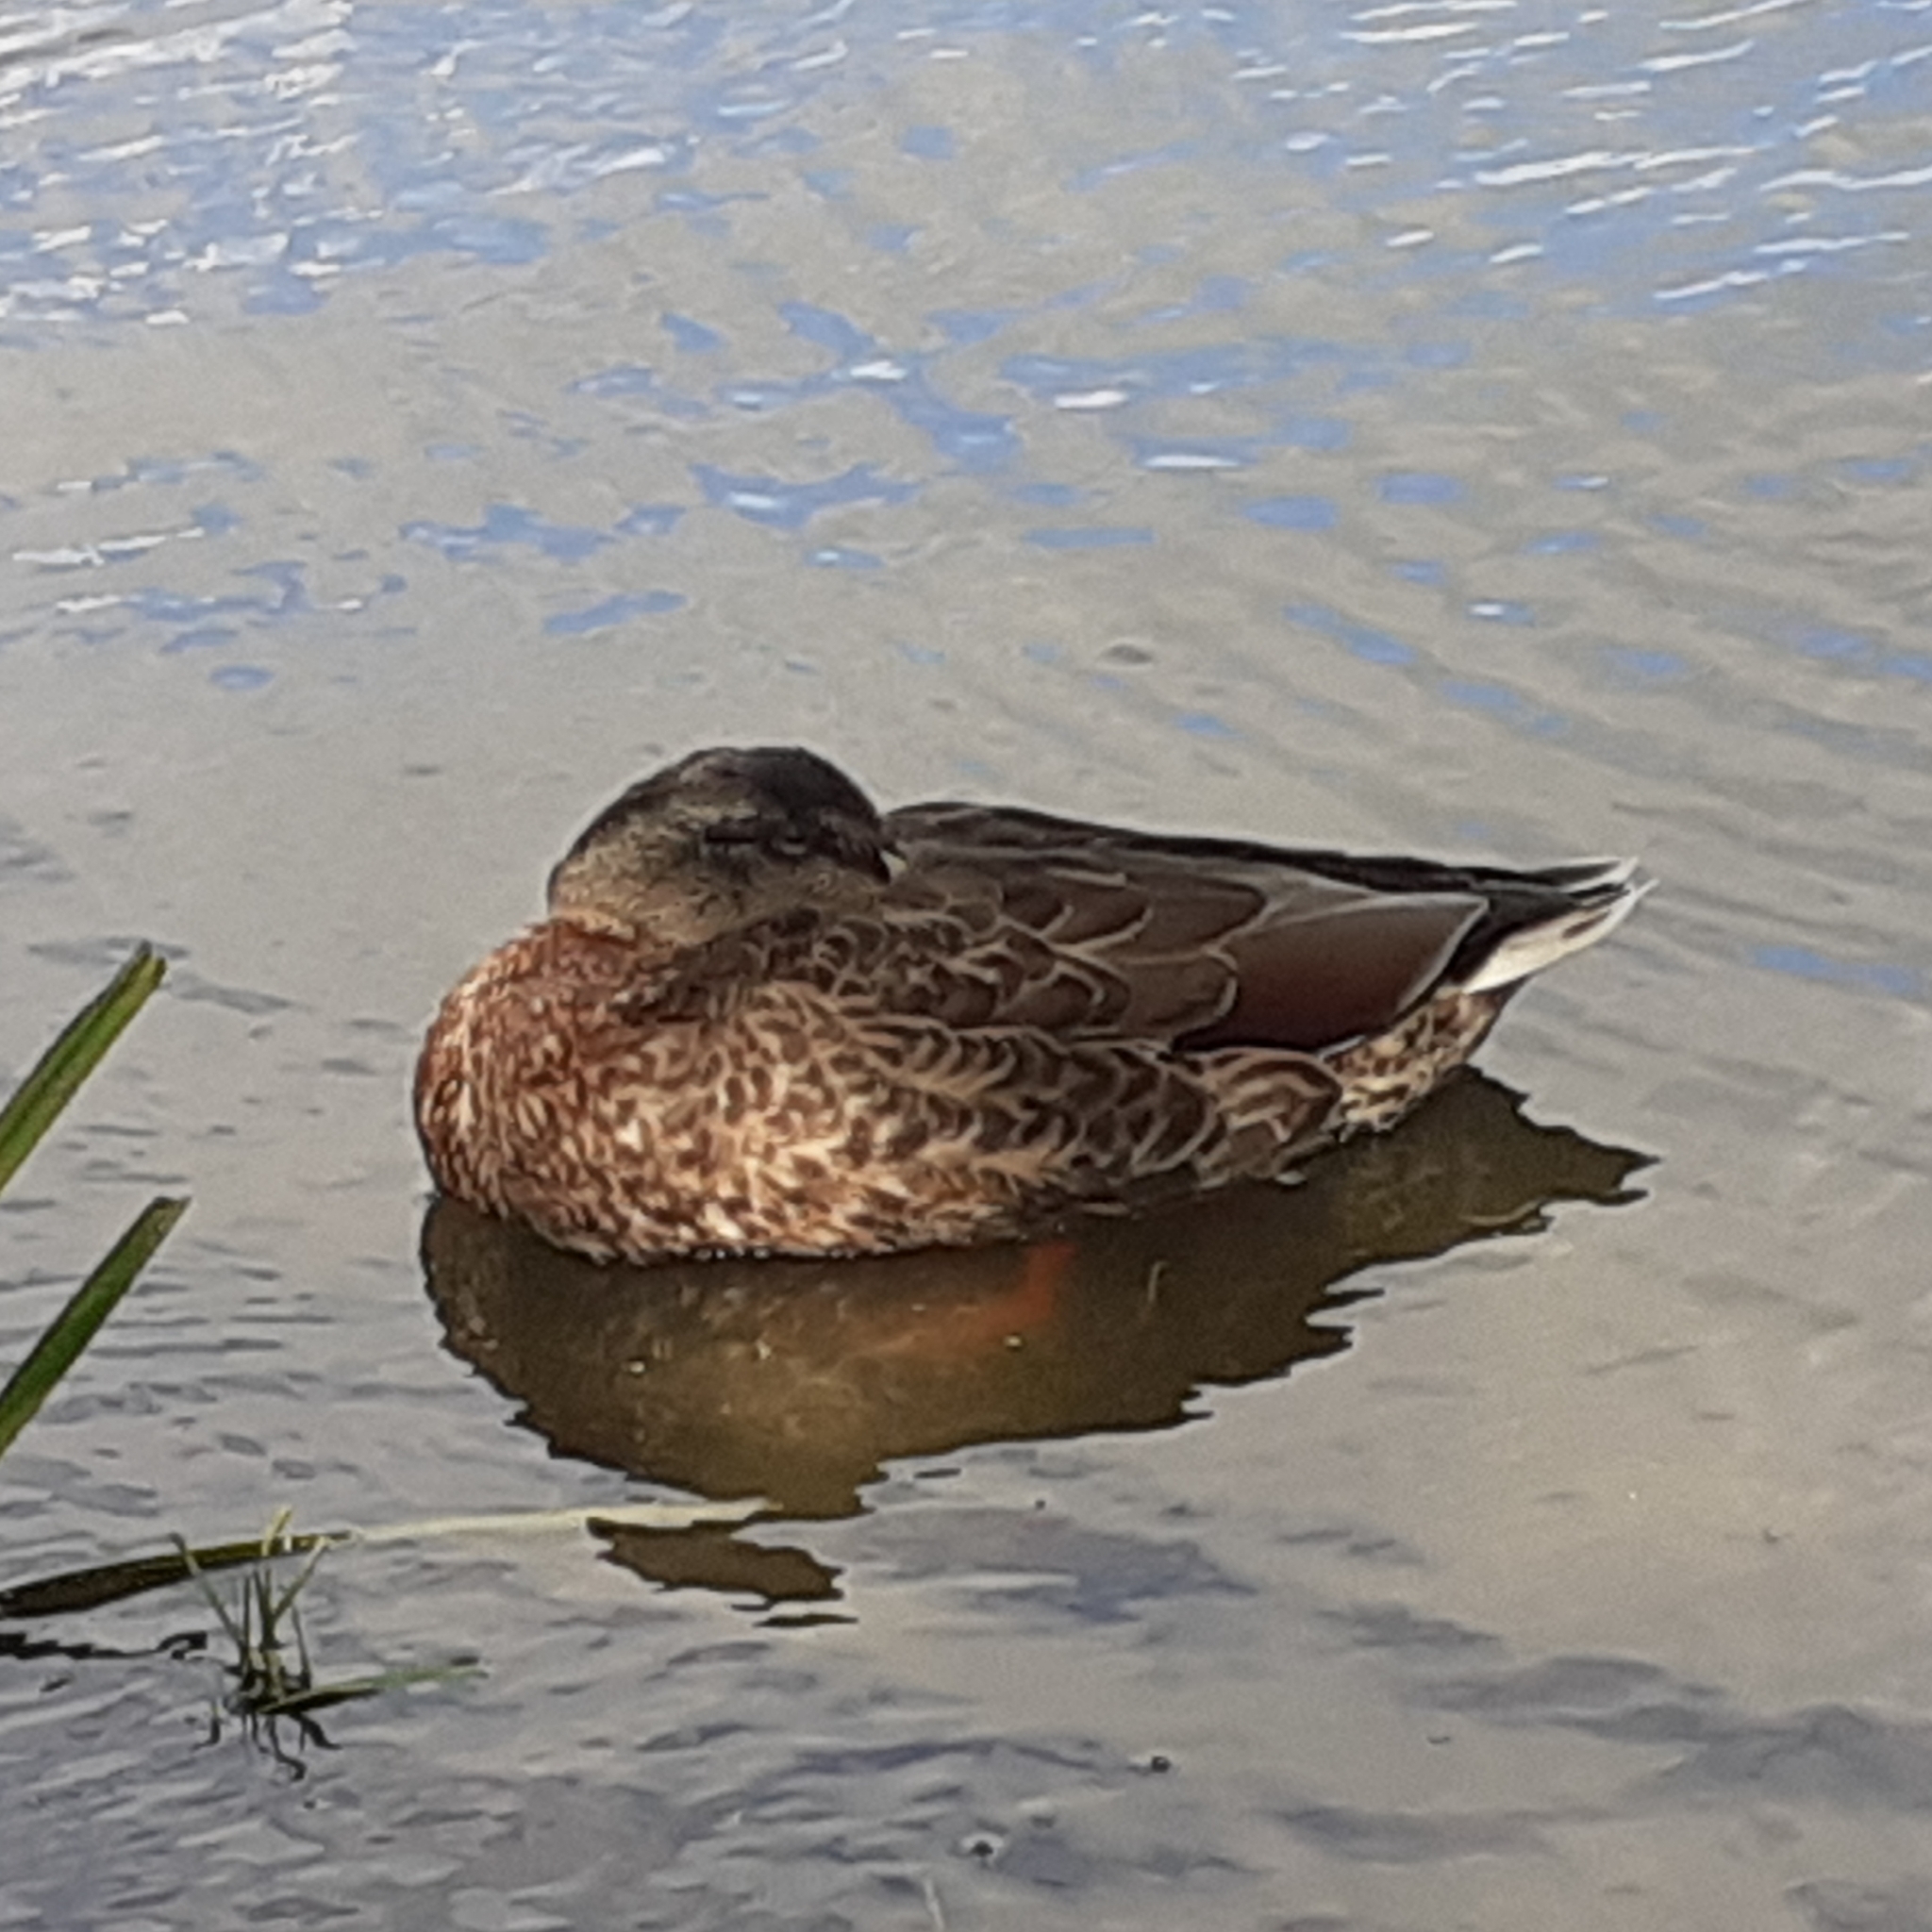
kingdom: Animalia
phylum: Chordata
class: Aves
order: Anseriformes
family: Anatidae
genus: Anas
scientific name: Anas platyrhynchos
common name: Mallard
